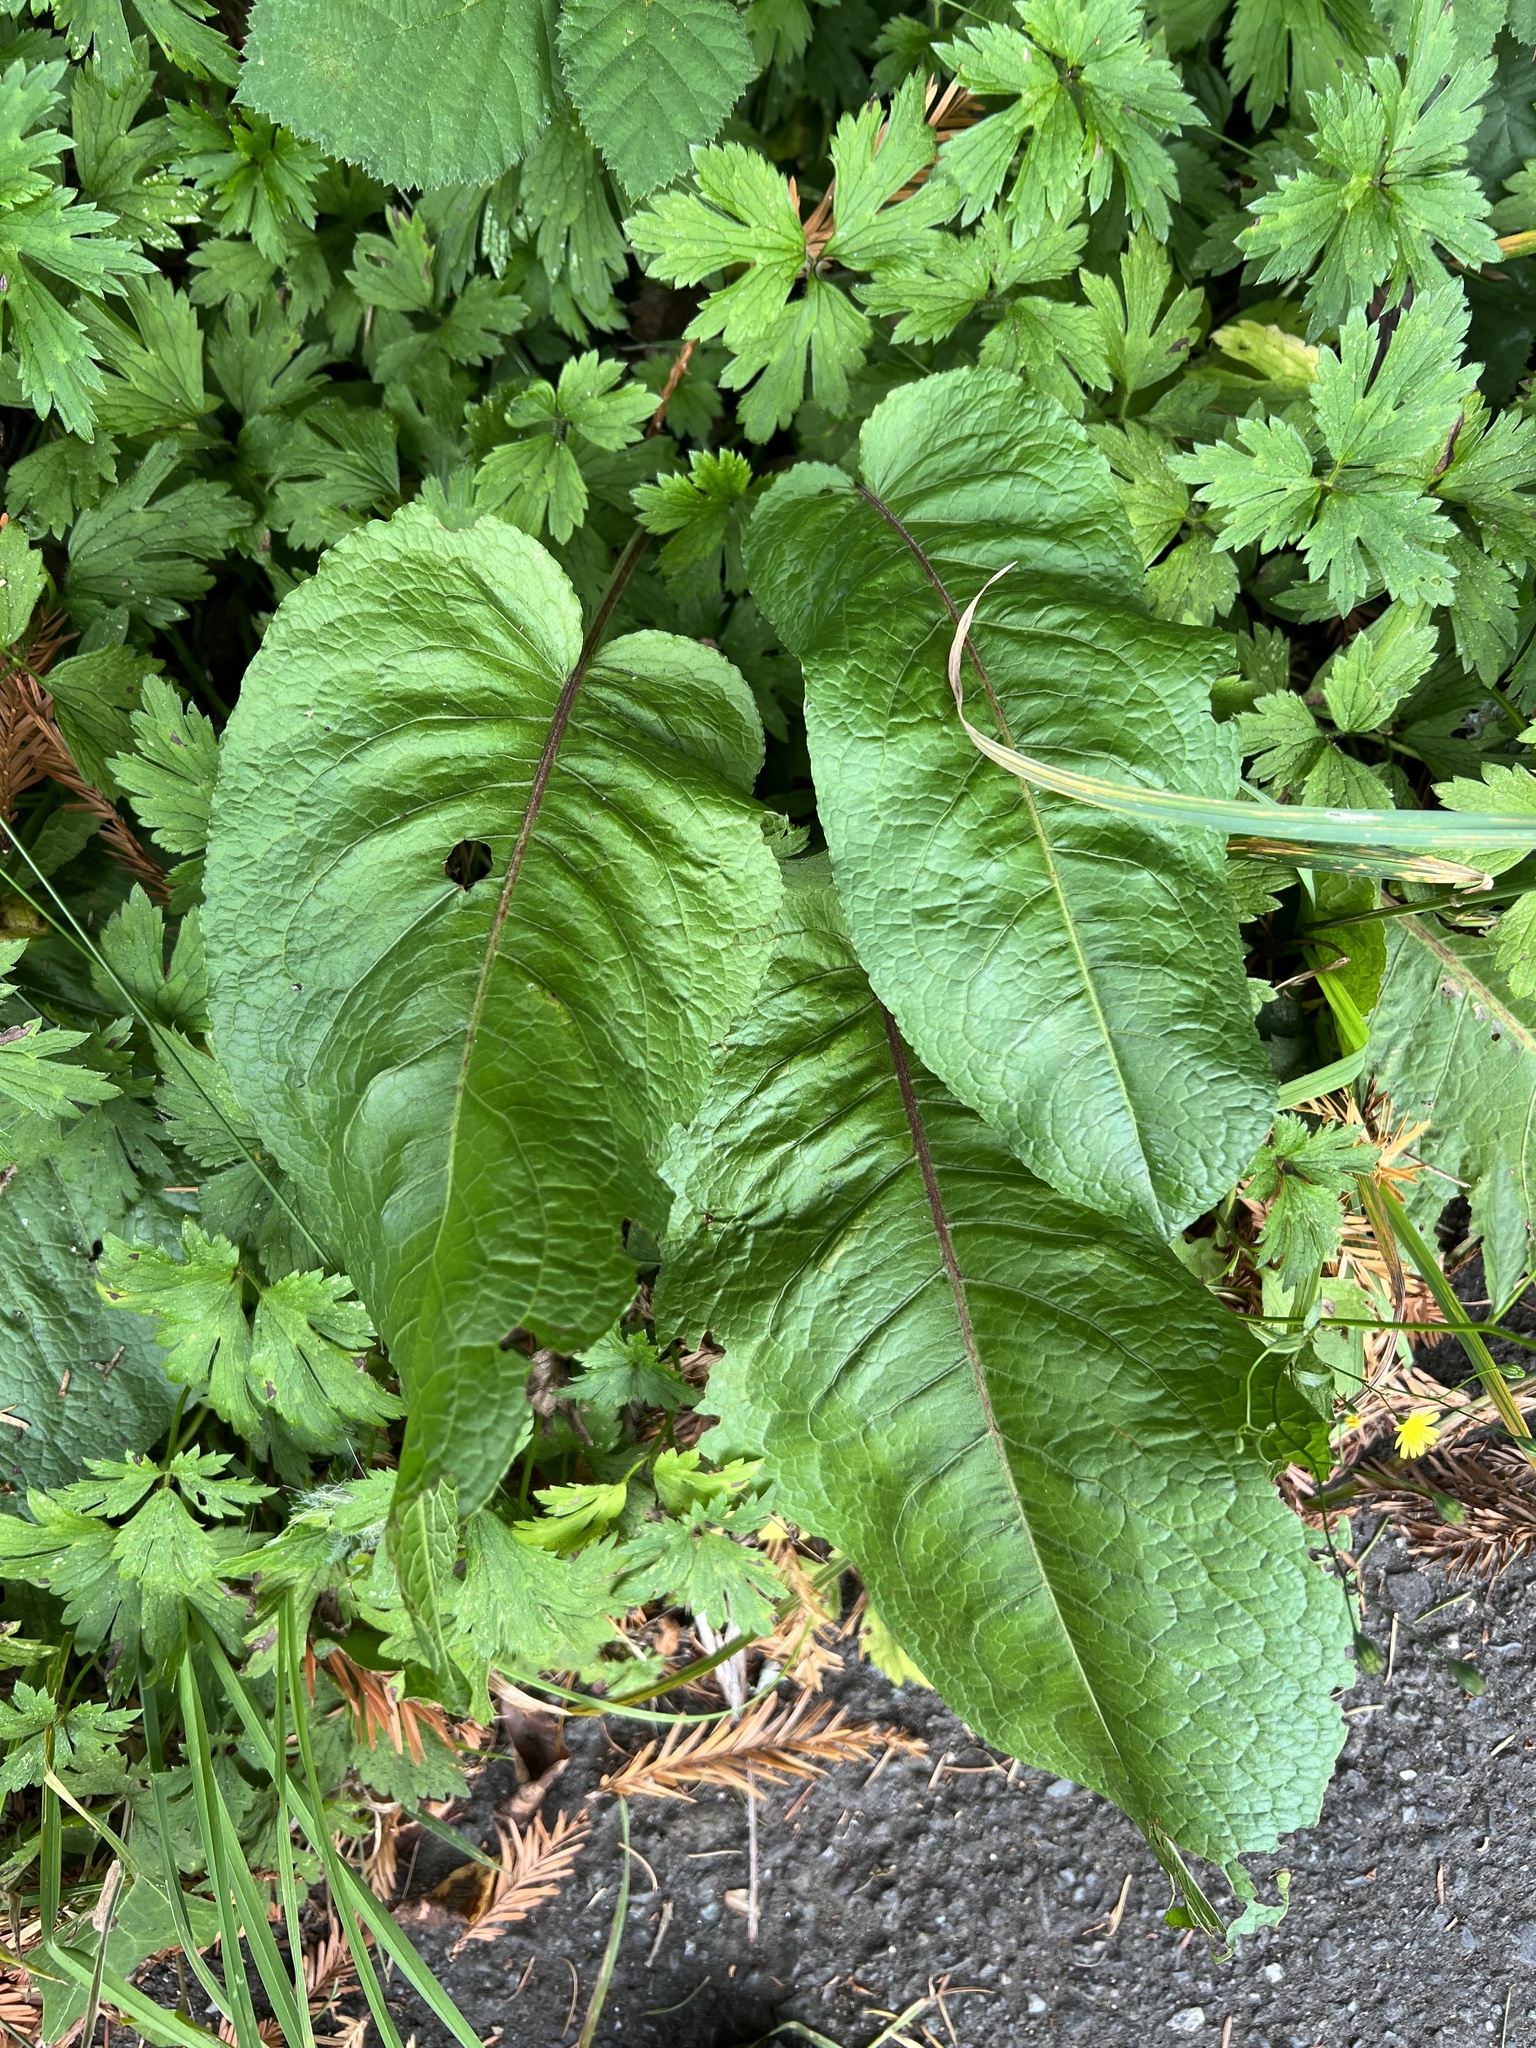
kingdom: Plantae
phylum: Tracheophyta
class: Magnoliopsida
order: Caryophyllales
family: Polygonaceae
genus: Rumex
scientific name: Rumex obtusifolius
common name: Bitter dock
